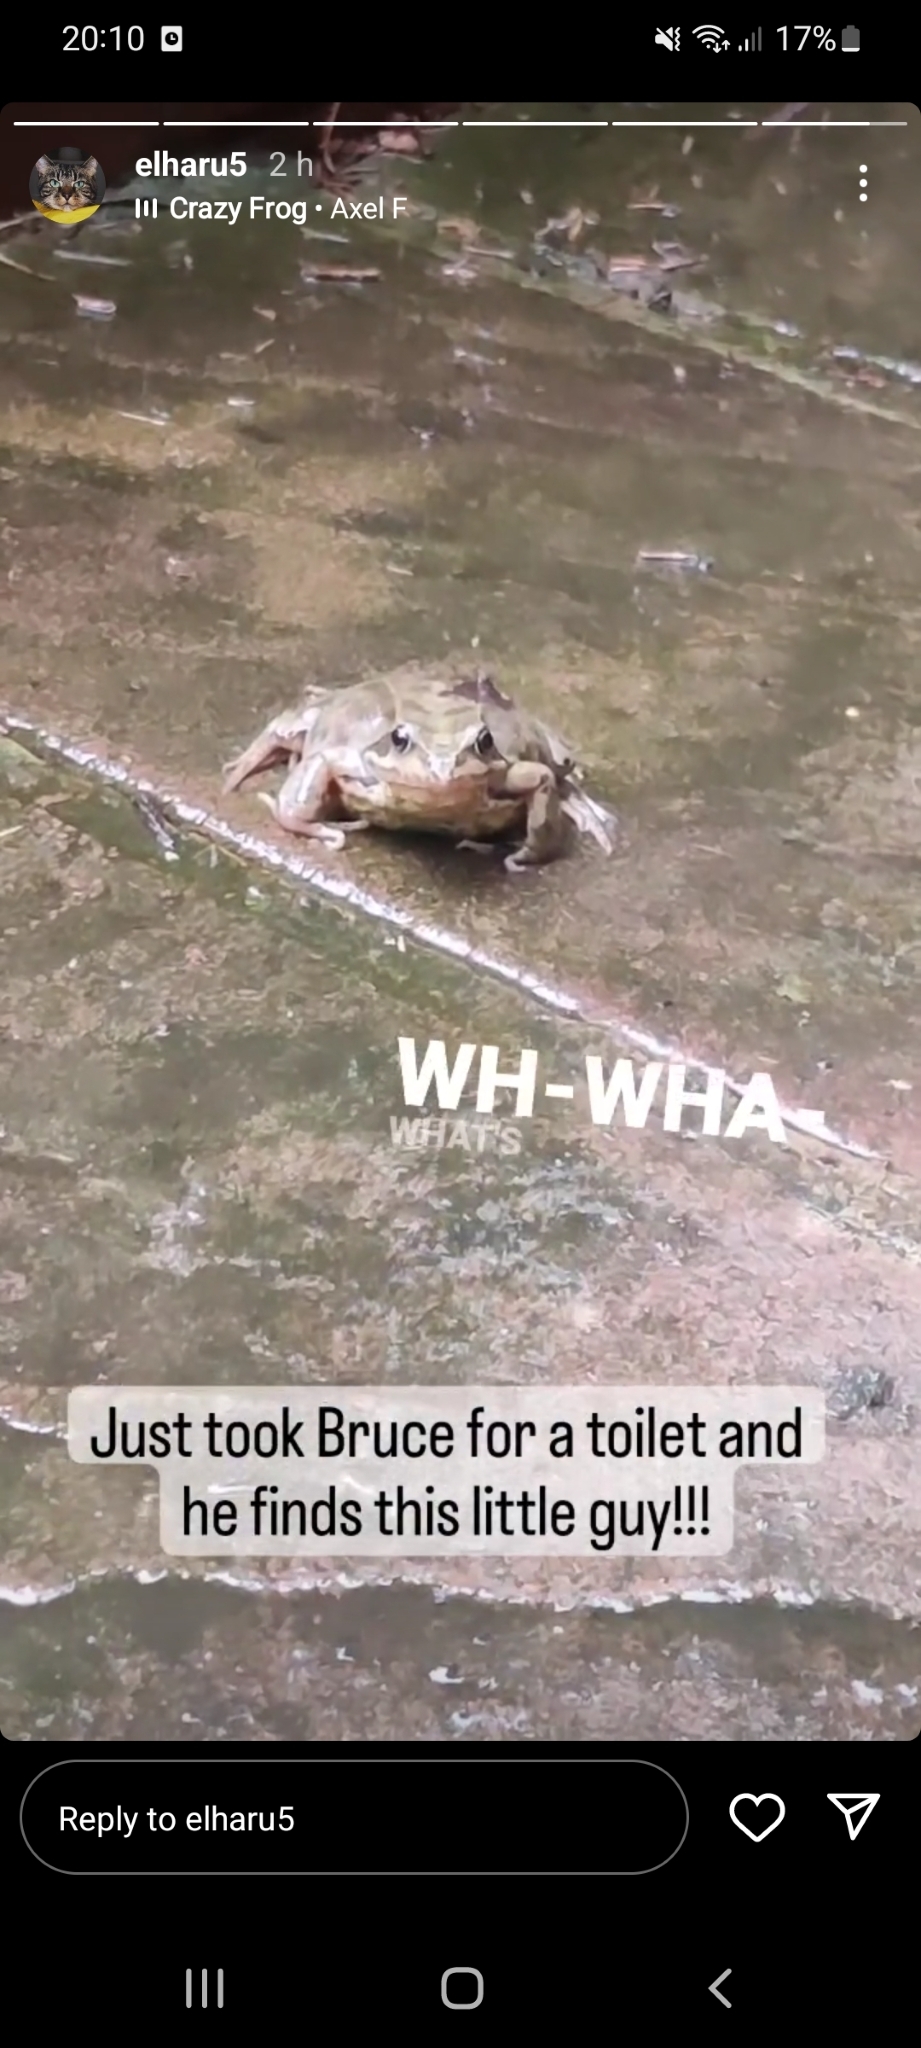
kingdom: Animalia
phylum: Chordata
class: Amphibia
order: Anura
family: Ranidae
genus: Rana
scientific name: Rana temporaria
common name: Common frog
